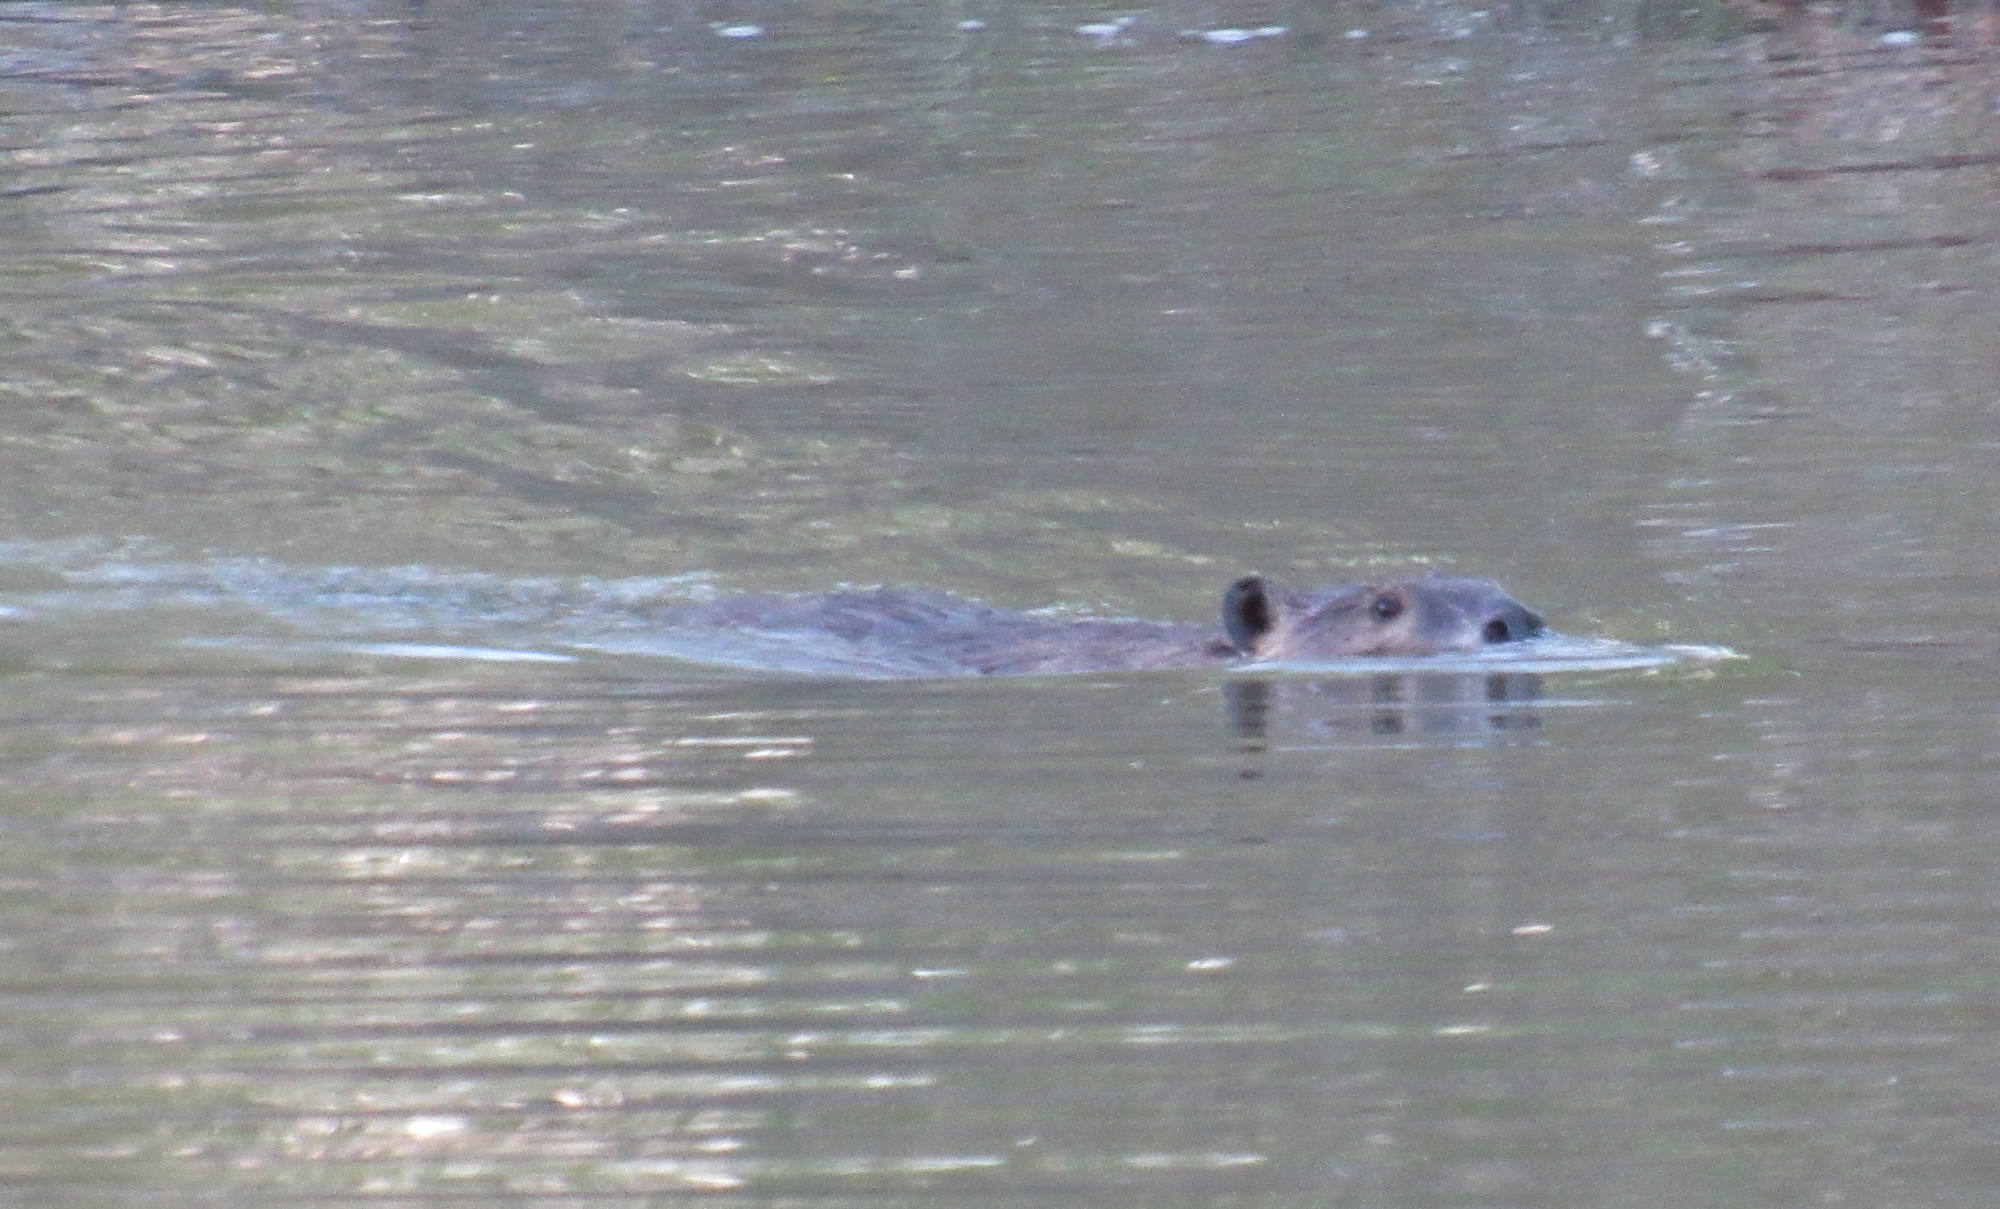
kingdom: Animalia
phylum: Chordata
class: Mammalia
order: Rodentia
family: Castoridae
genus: Castor
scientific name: Castor canadensis
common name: American beaver
